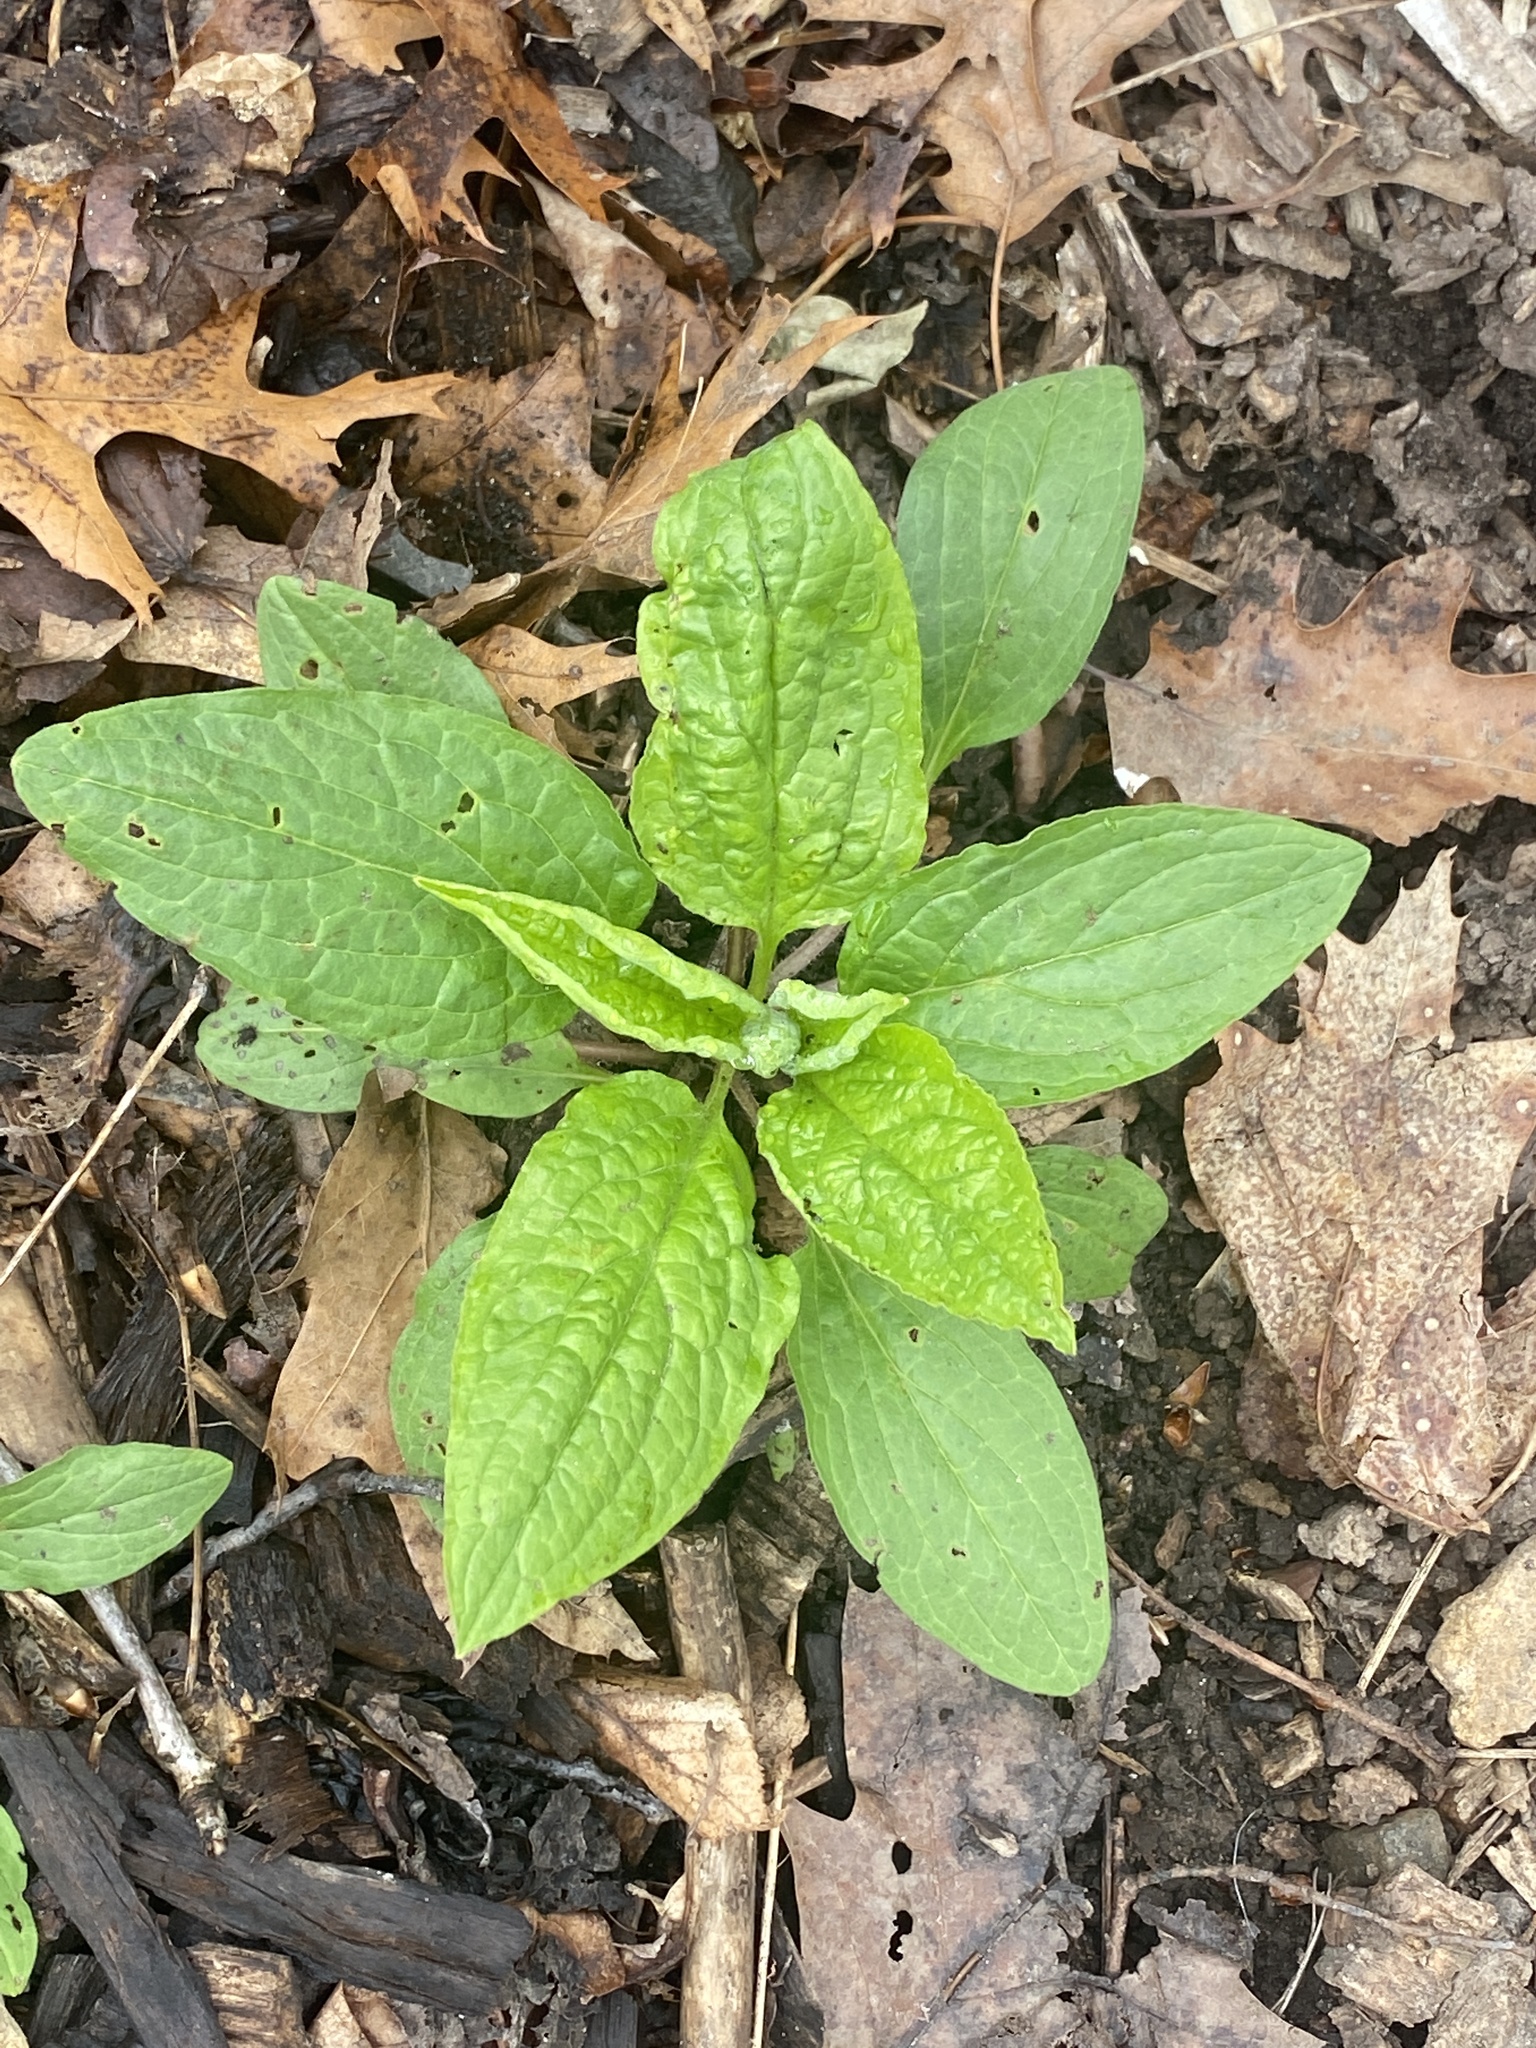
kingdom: Plantae
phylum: Tracheophyta
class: Magnoliopsida
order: Boraginales
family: Boraginaceae
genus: Hackelia
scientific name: Hackelia virginiana
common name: Beggar's-lice
